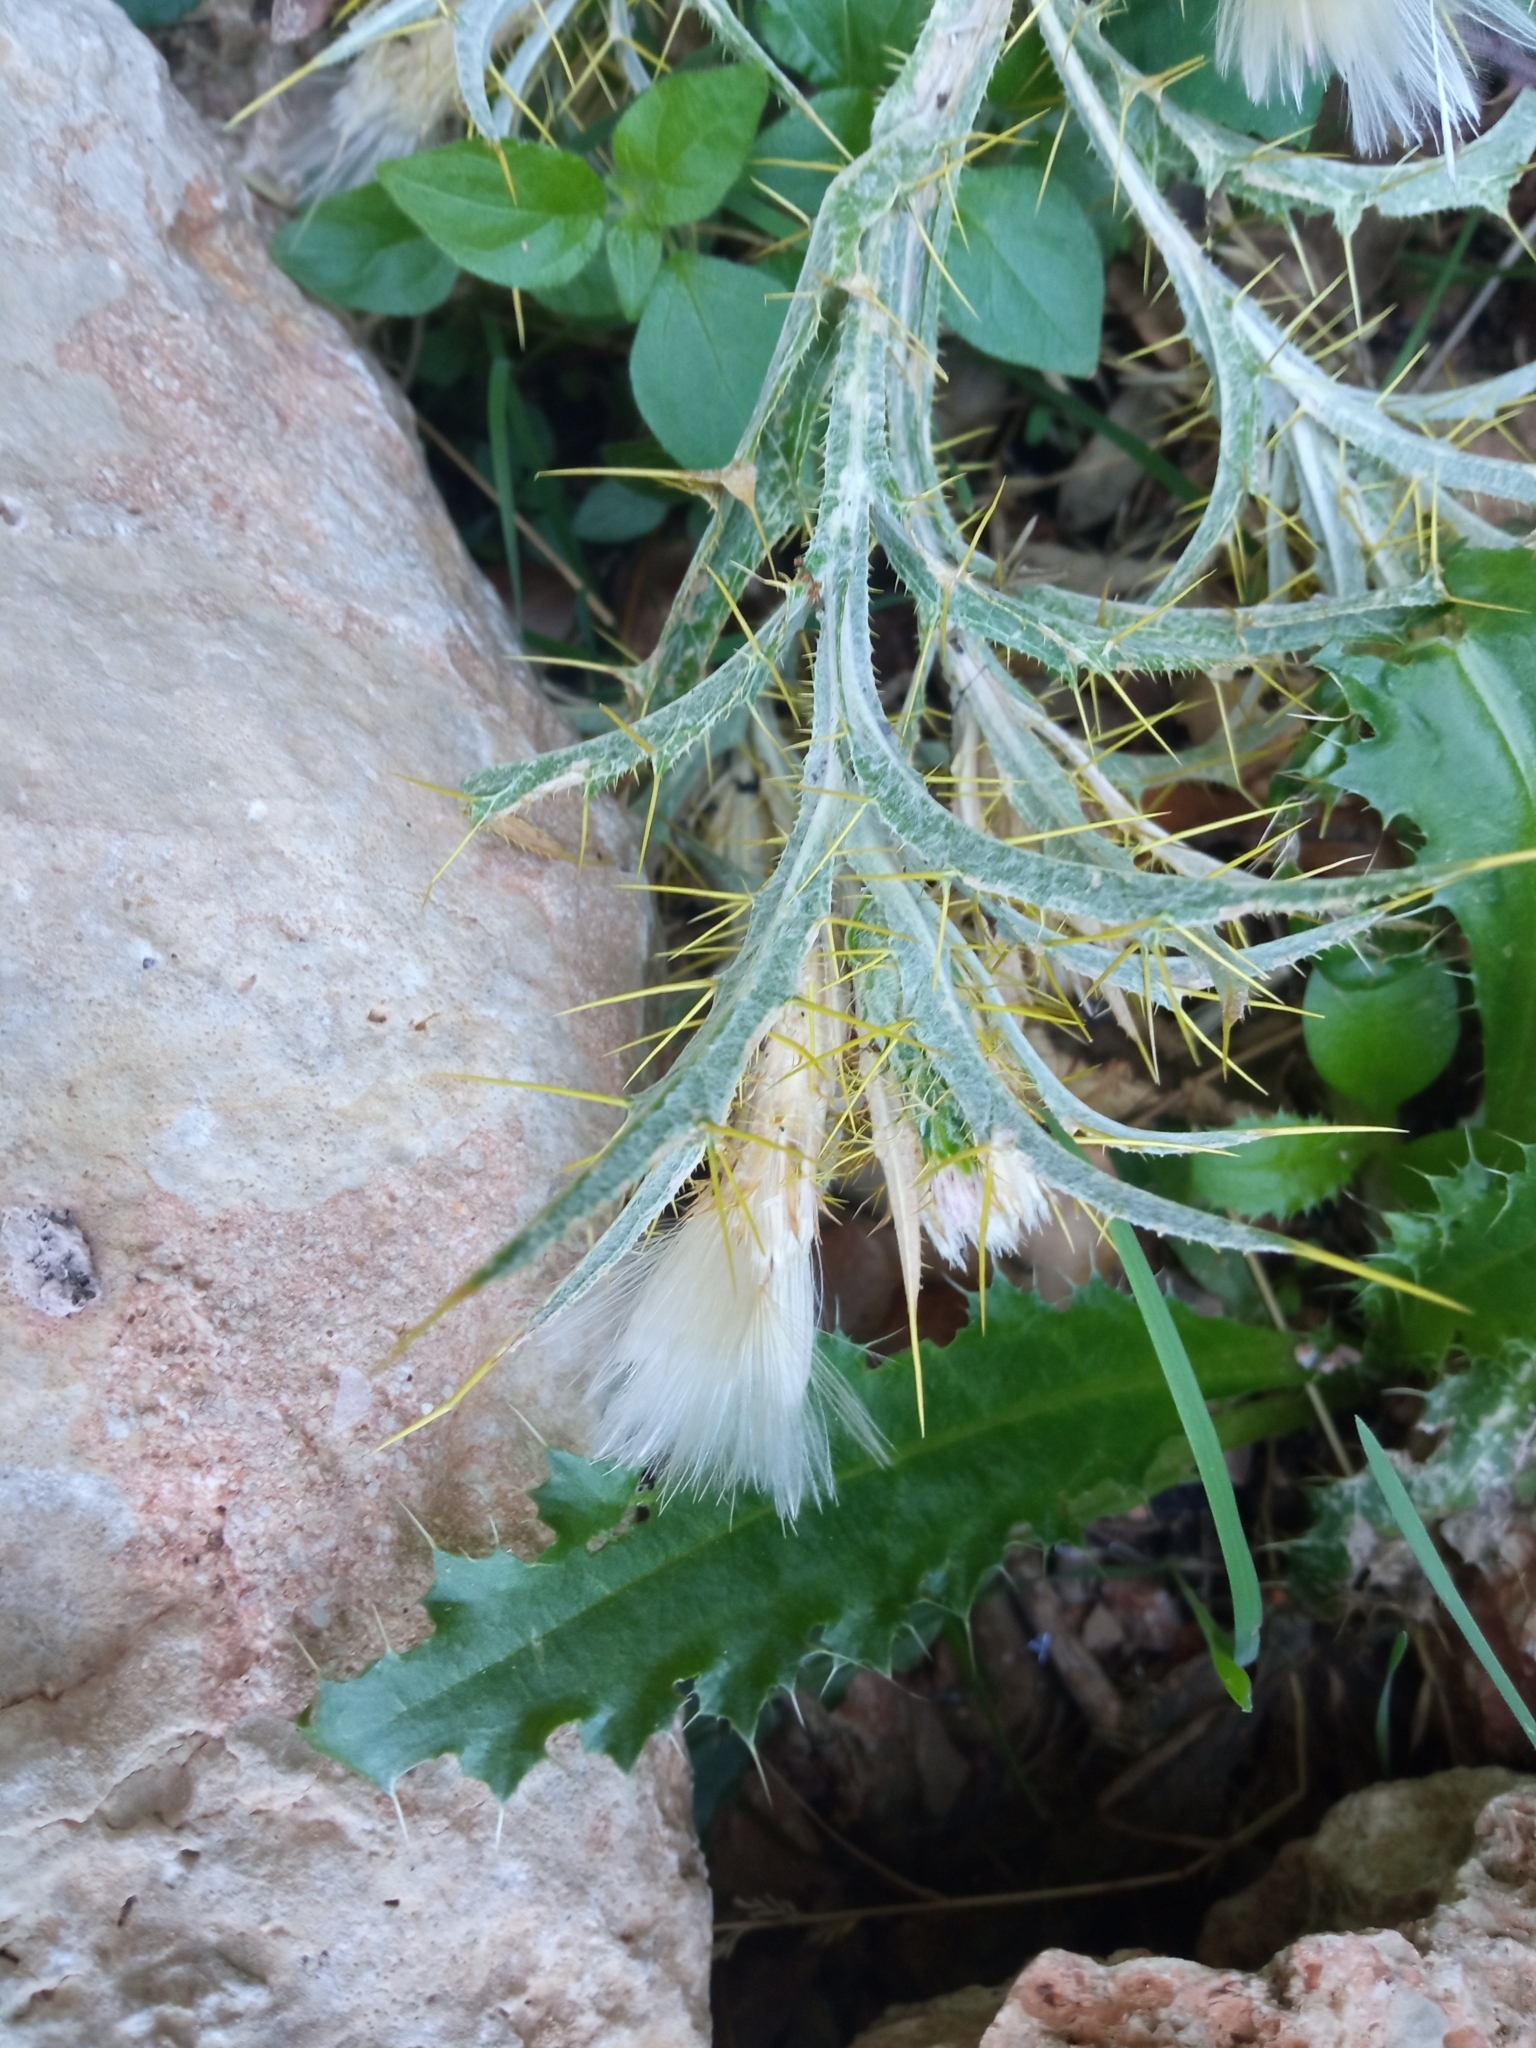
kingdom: Plantae
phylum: Tracheophyta
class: Magnoliopsida
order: Asterales
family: Asteraceae
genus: Picnomon
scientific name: Picnomon acarna
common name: Soldier thistle
